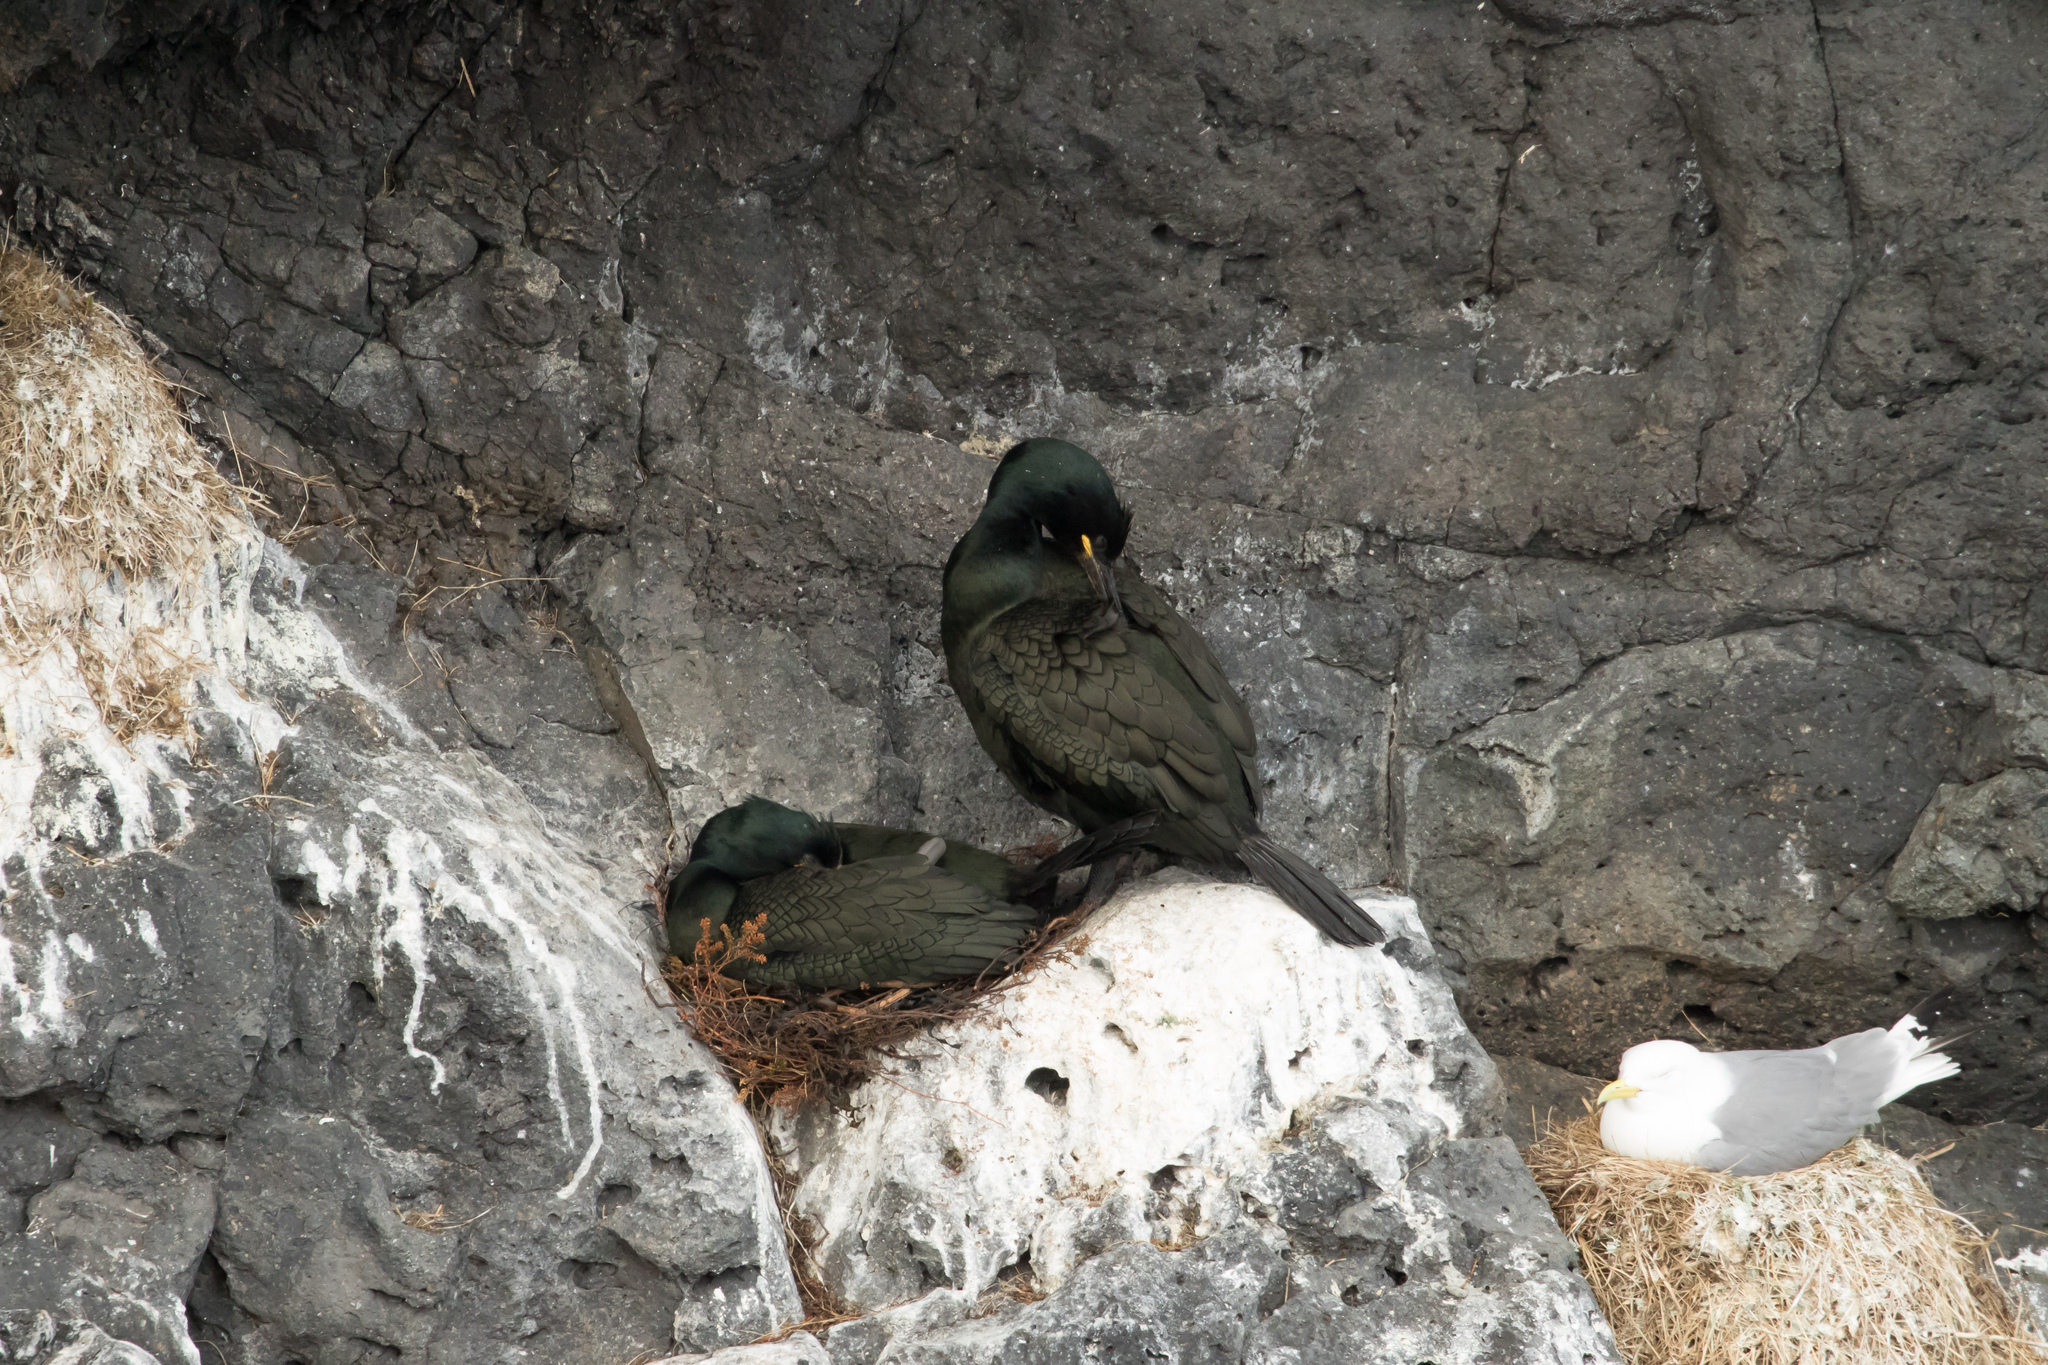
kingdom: Animalia
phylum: Chordata
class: Aves
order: Suliformes
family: Phalacrocoracidae
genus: Phalacrocorax
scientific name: Phalacrocorax aristotelis
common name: European shag
